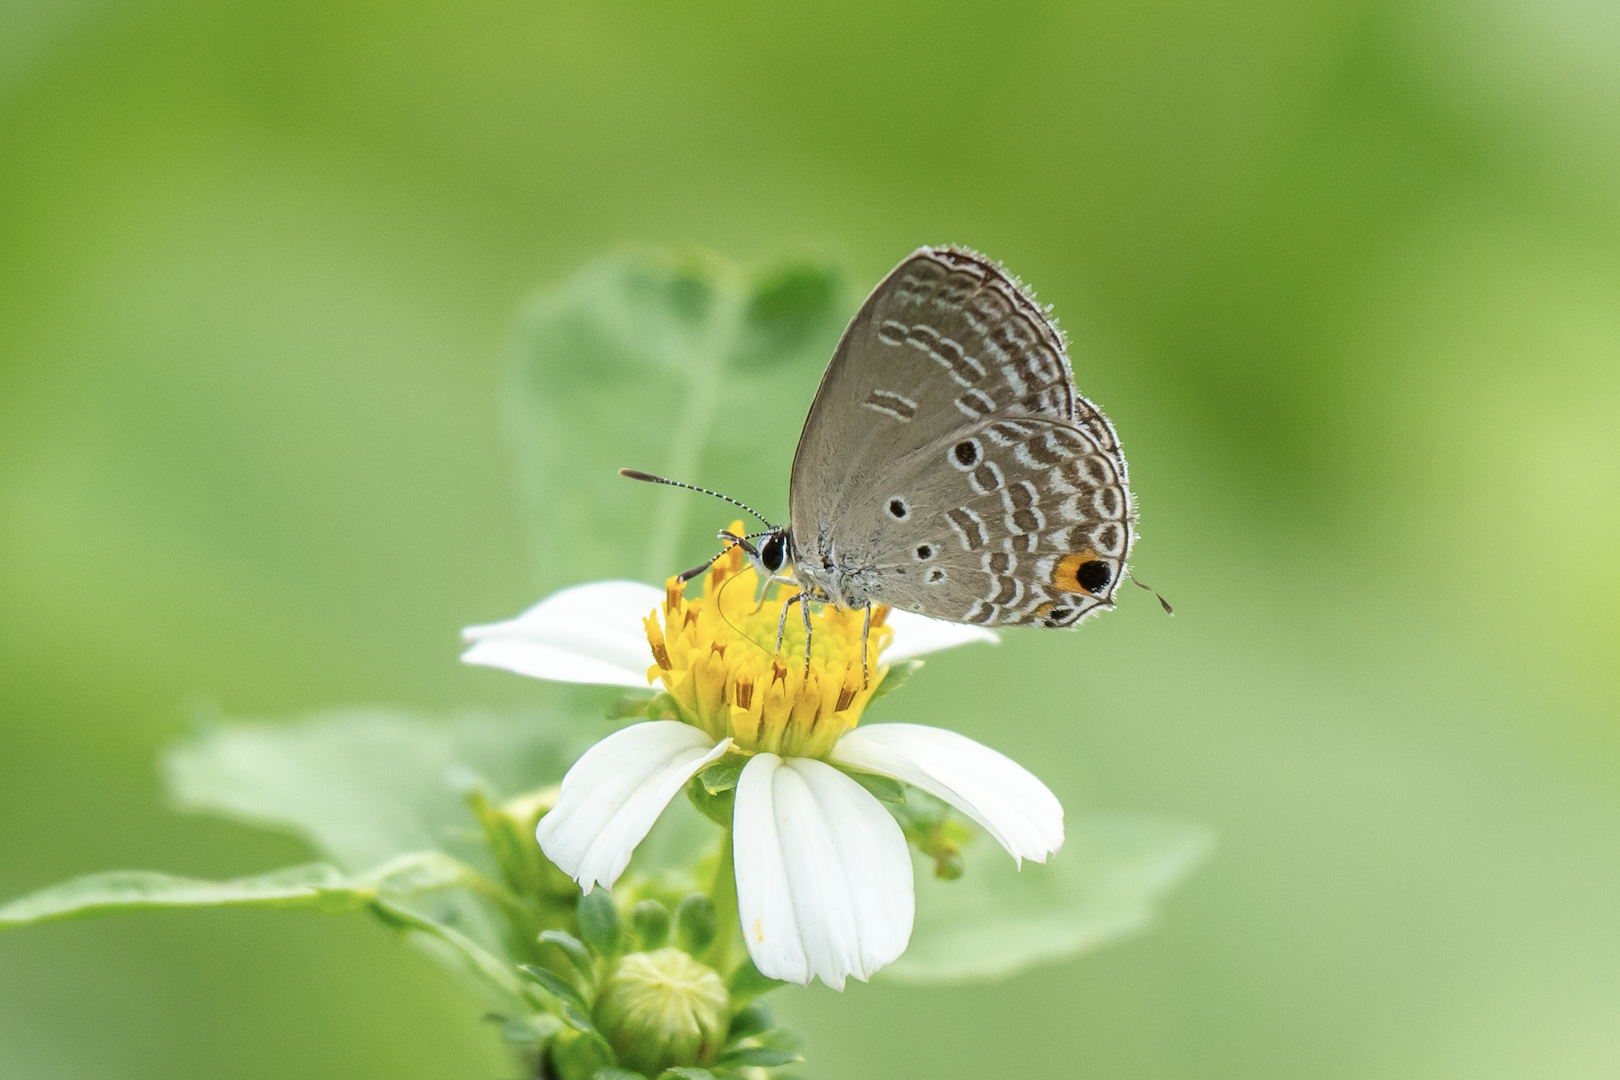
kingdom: Animalia
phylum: Arthropoda
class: Insecta
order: Lepidoptera
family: Lycaenidae
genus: Luthrodes
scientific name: Luthrodes pandava
